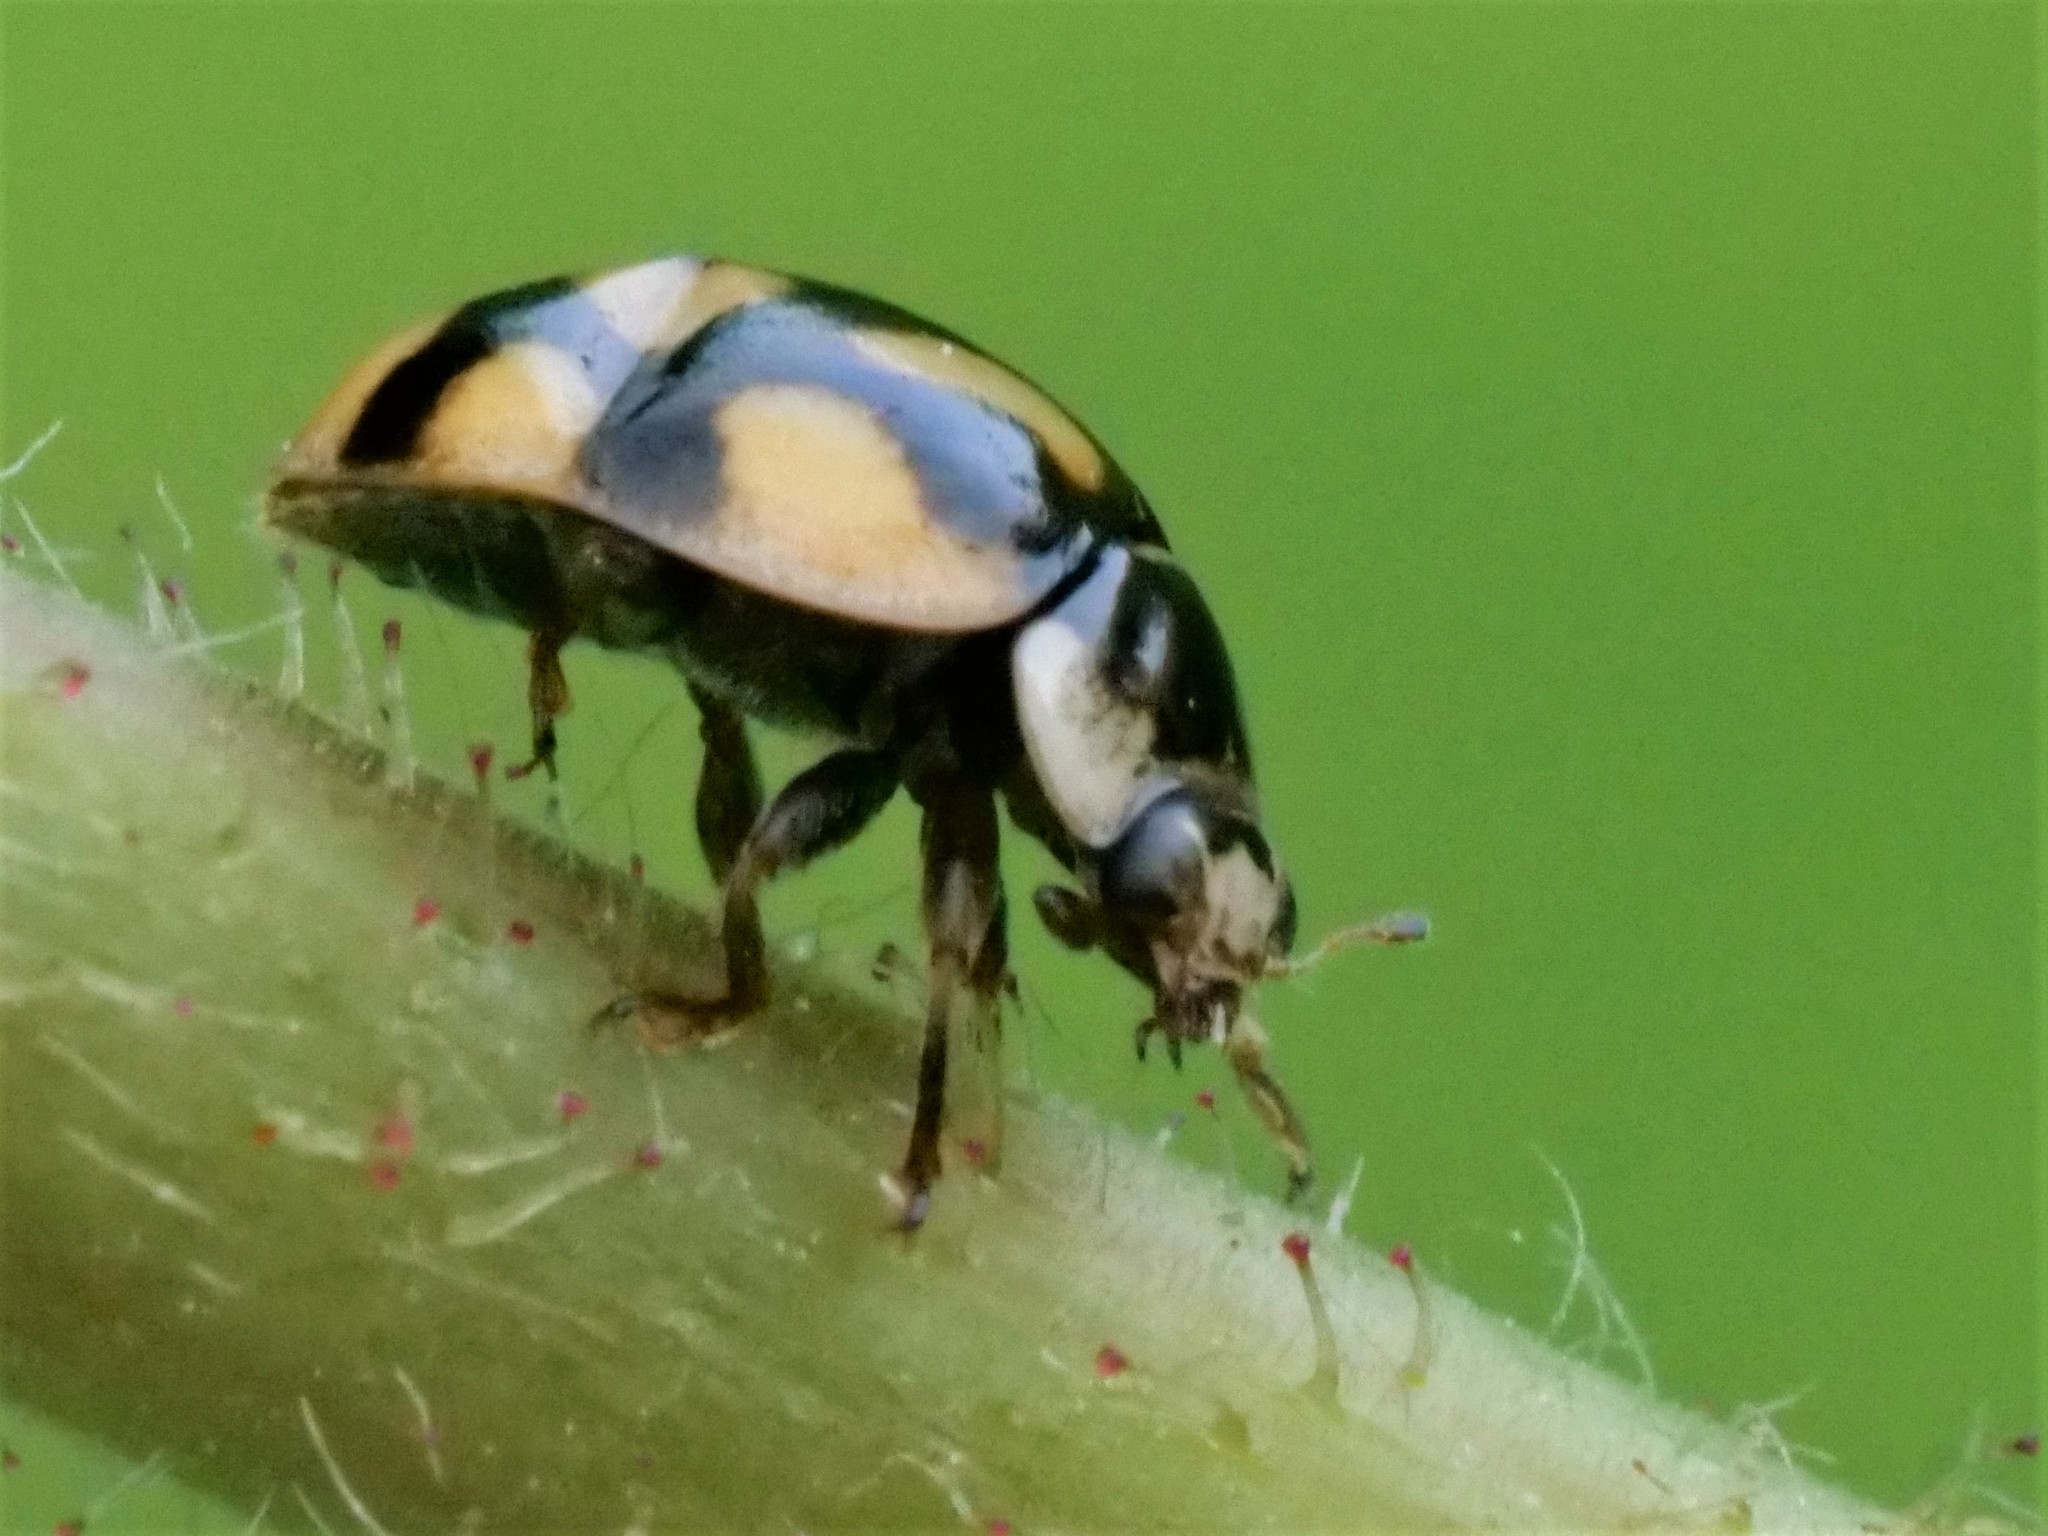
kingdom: Animalia
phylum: Arthropoda
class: Insecta
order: Coleoptera
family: Coccinellidae
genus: Adalia
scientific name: Adalia decempunctata
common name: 10-spot ladybird
